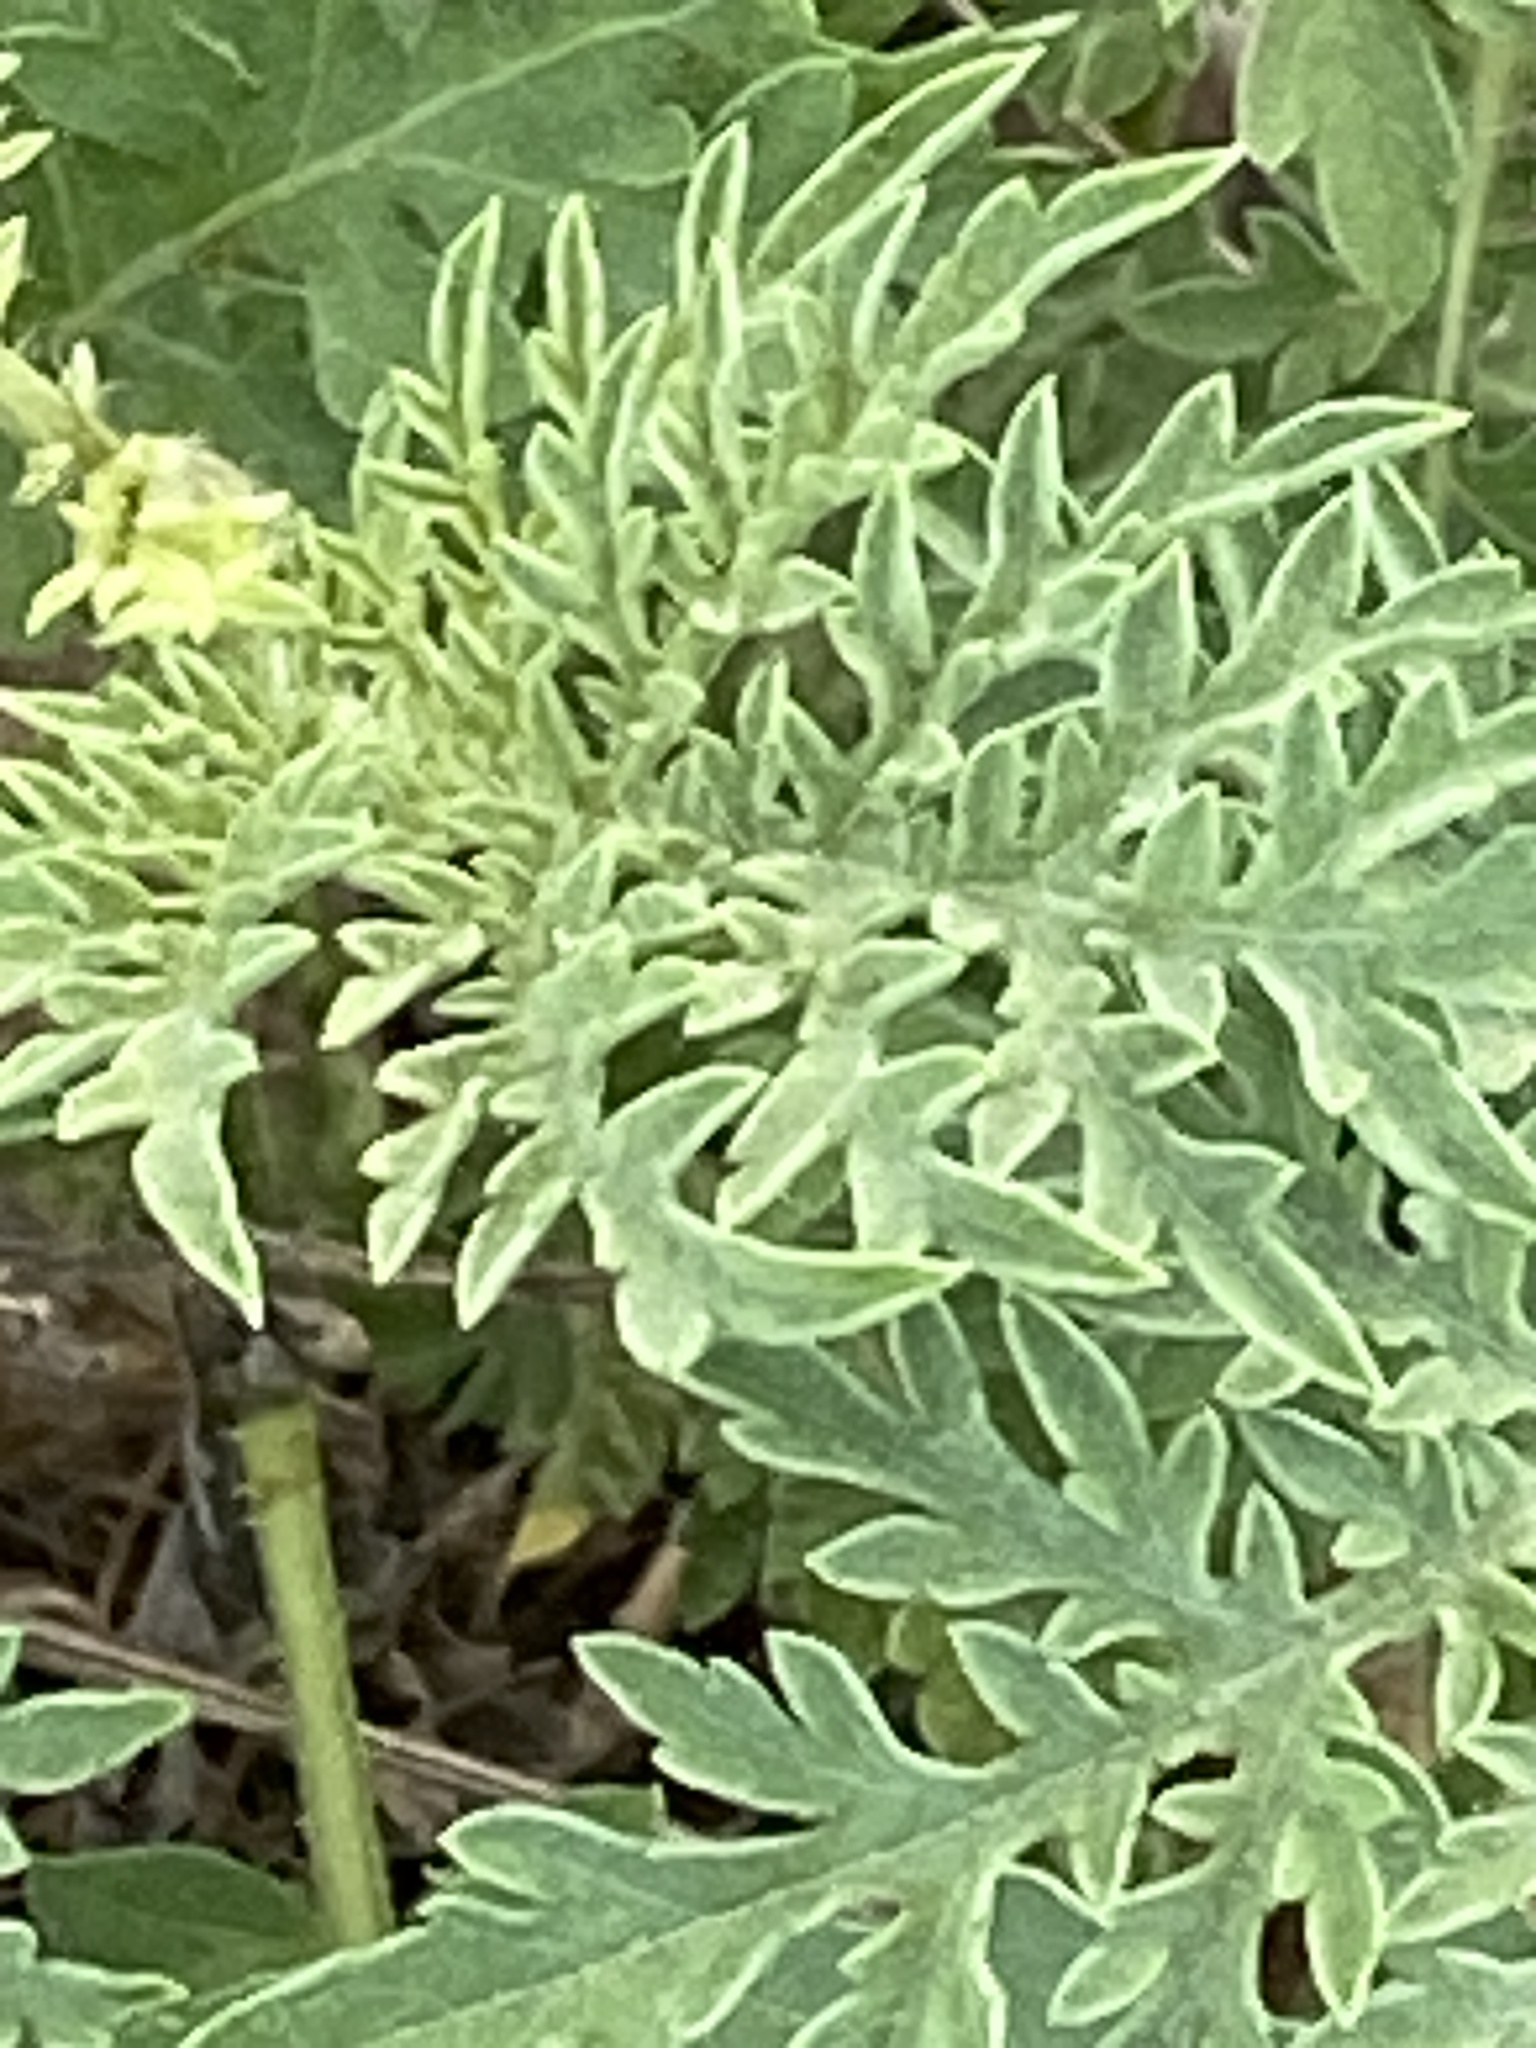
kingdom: Plantae
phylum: Tracheophyta
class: Magnoliopsida
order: Asterales
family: Asteraceae
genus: Ambrosia
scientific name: Ambrosia confertiflora
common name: Bur ragweed
